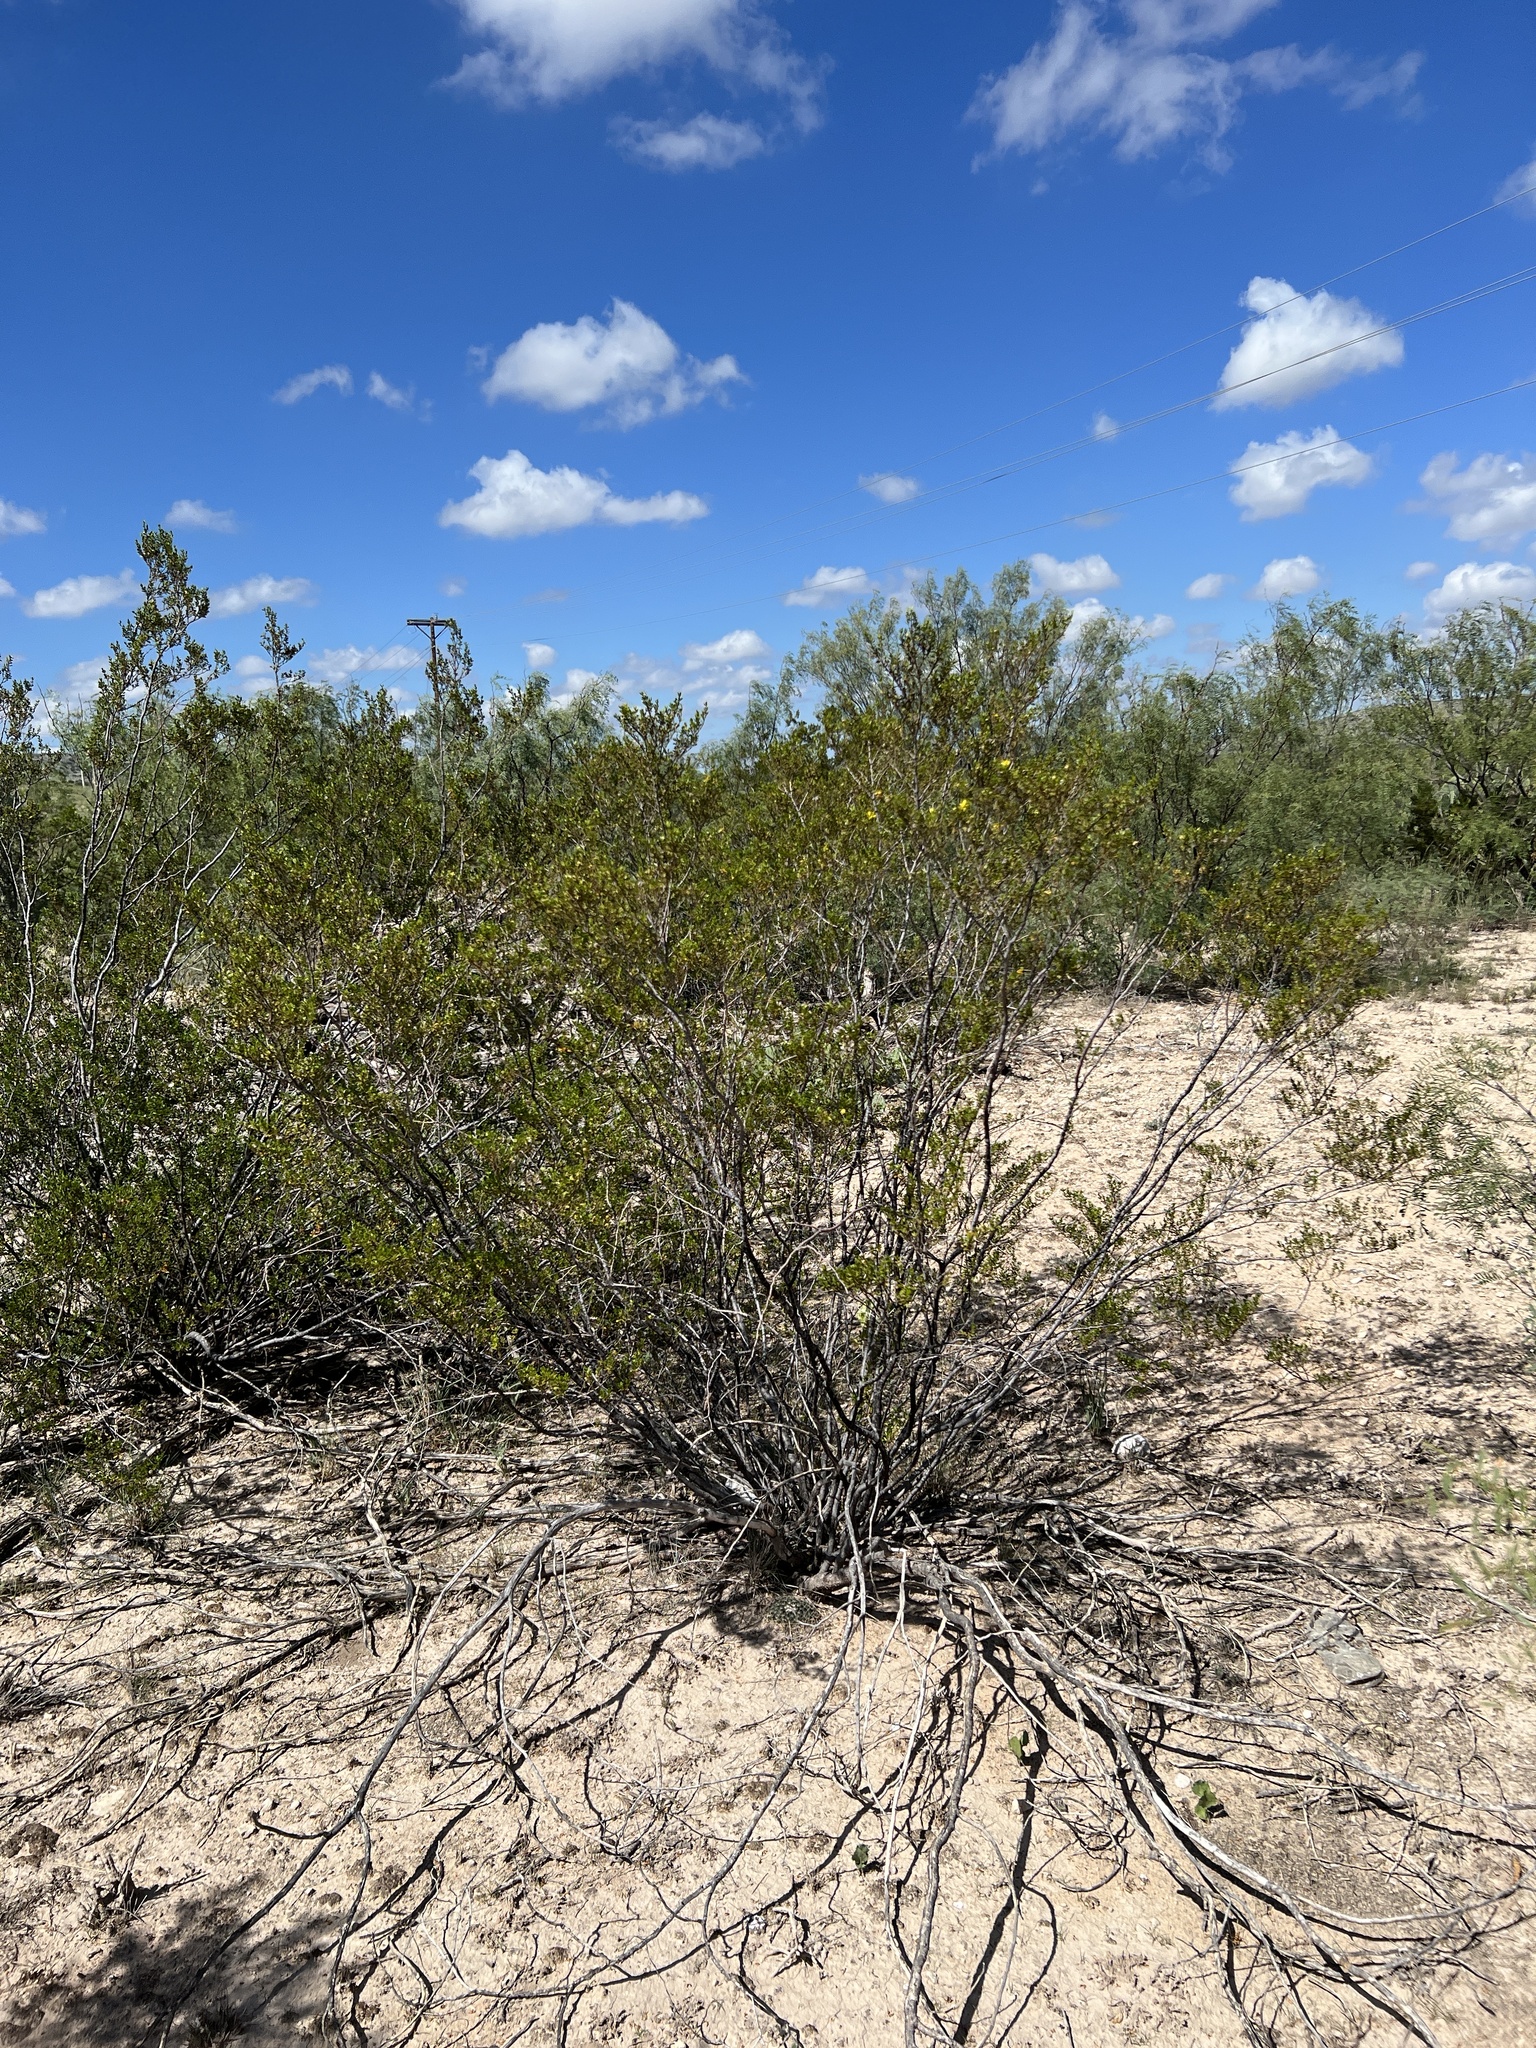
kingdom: Plantae
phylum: Tracheophyta
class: Magnoliopsida
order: Zygophyllales
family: Zygophyllaceae
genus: Larrea
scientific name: Larrea tridentata
